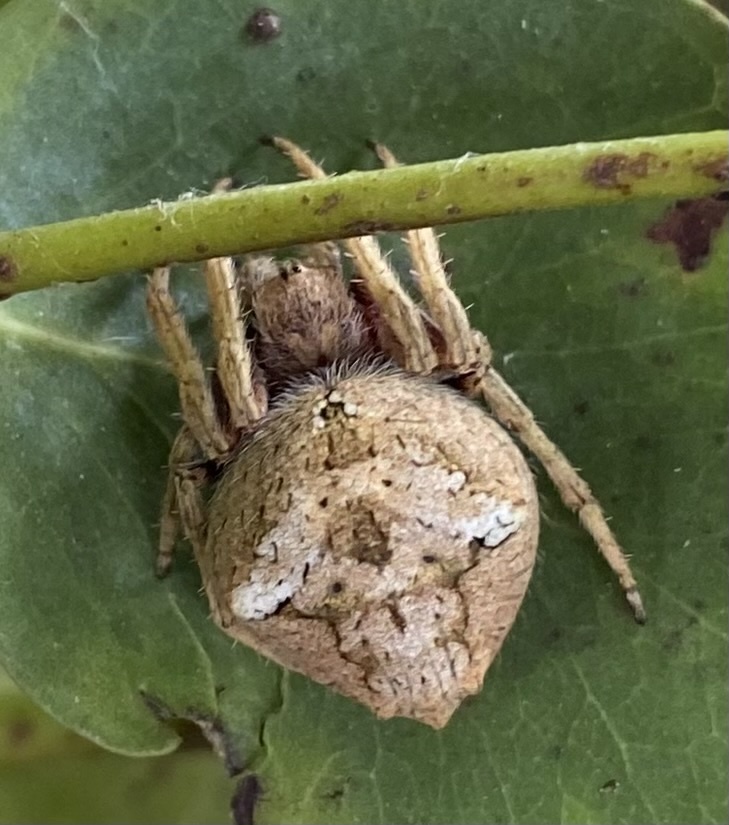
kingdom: Animalia
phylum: Arthropoda
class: Arachnida
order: Araneae
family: Araneidae
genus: Eriophora
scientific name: Eriophora pustulosa
